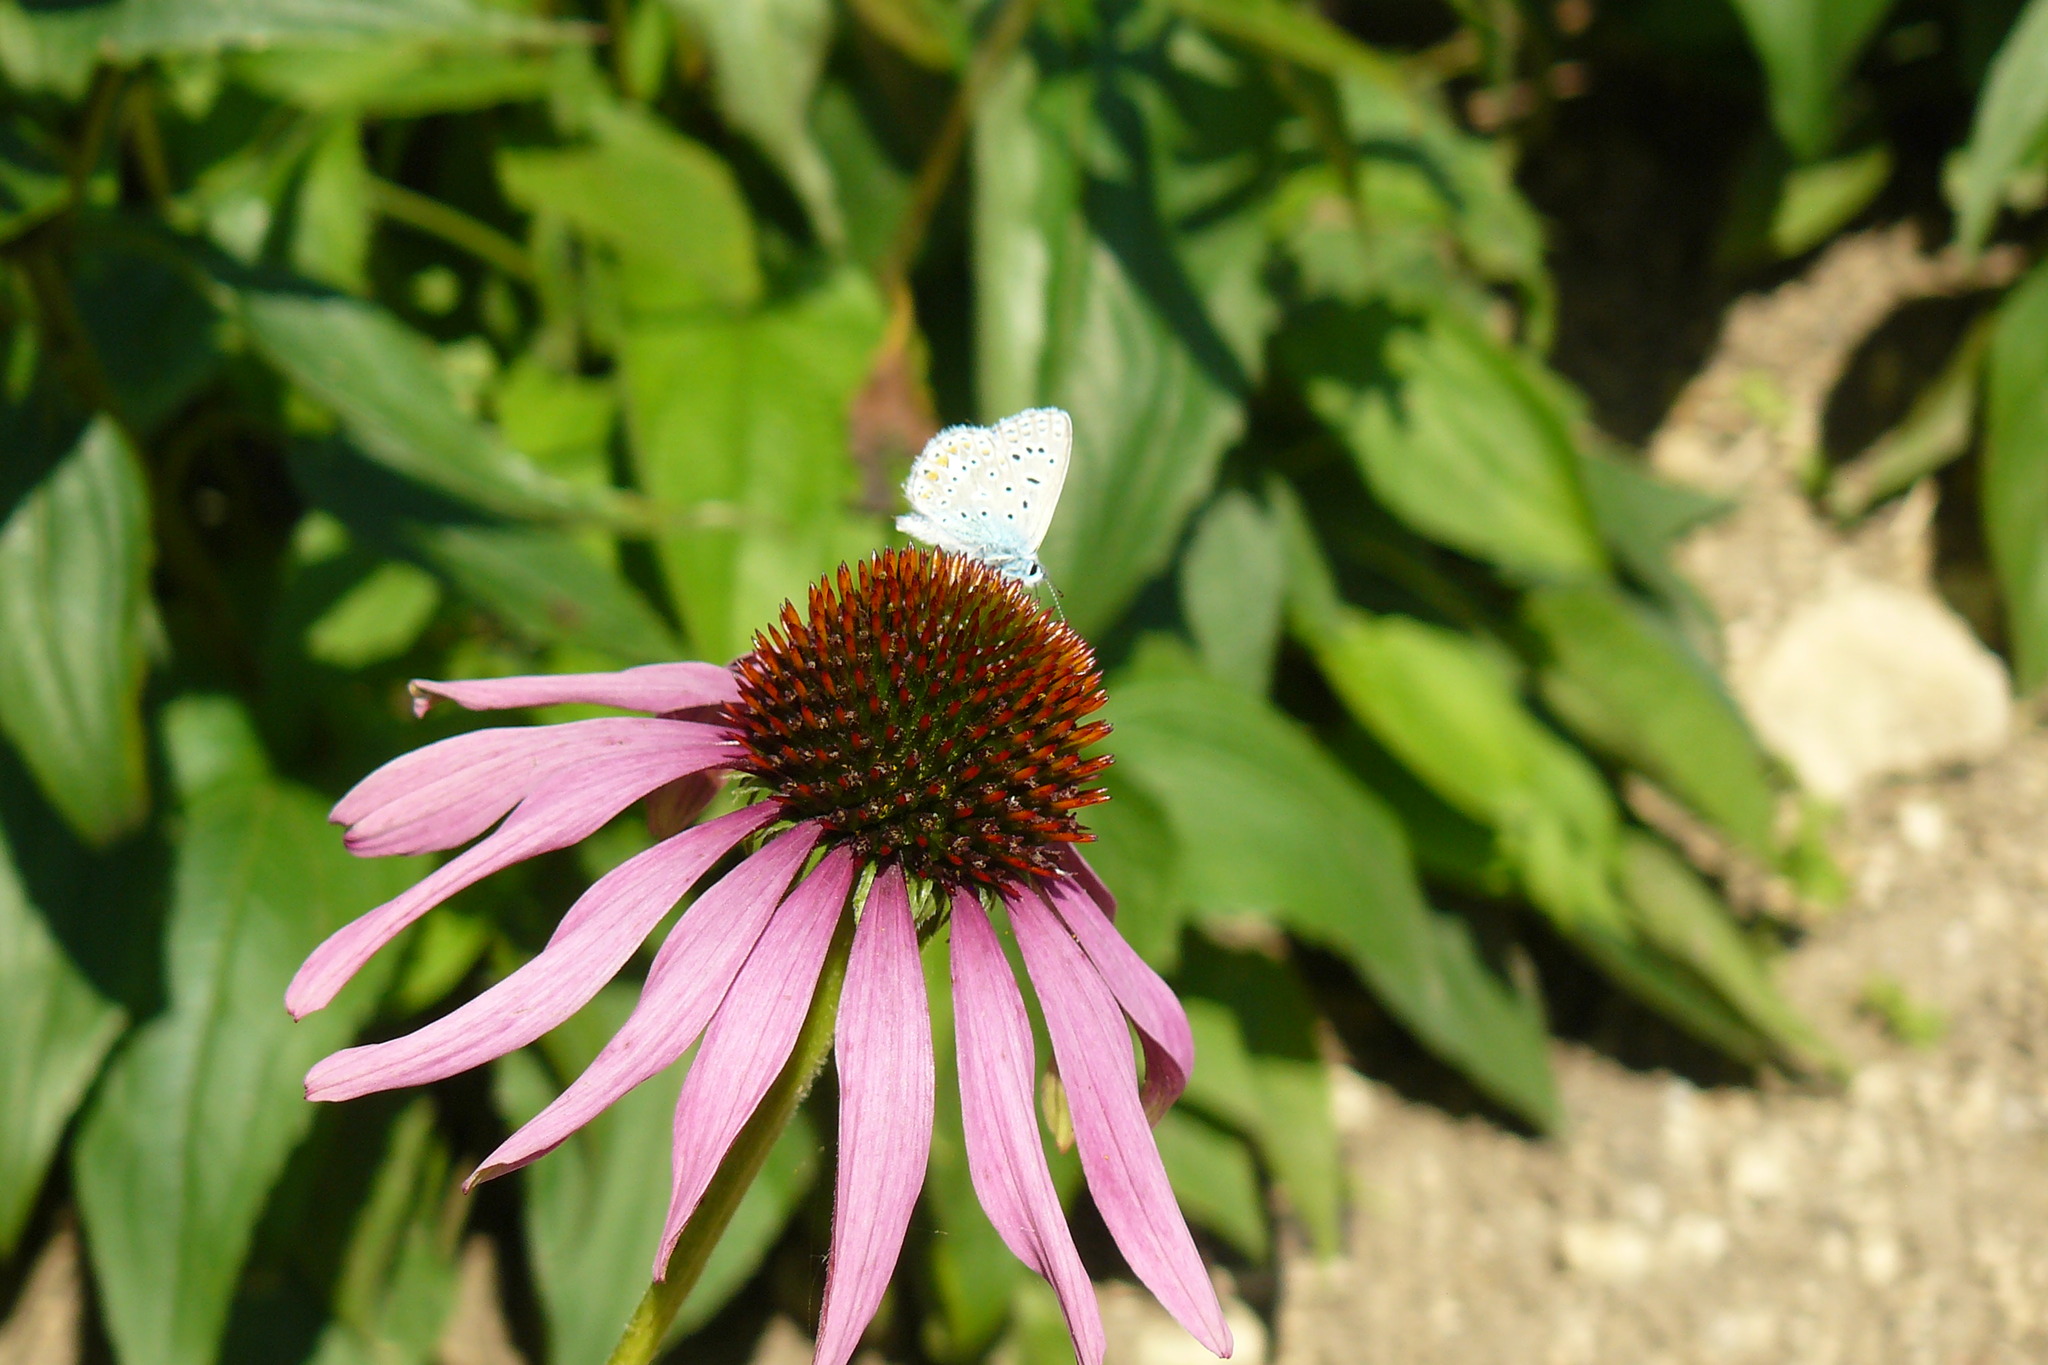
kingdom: Animalia
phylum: Arthropoda
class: Insecta
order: Lepidoptera
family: Lycaenidae
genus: Polyommatus
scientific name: Polyommatus icarus
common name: Common blue
